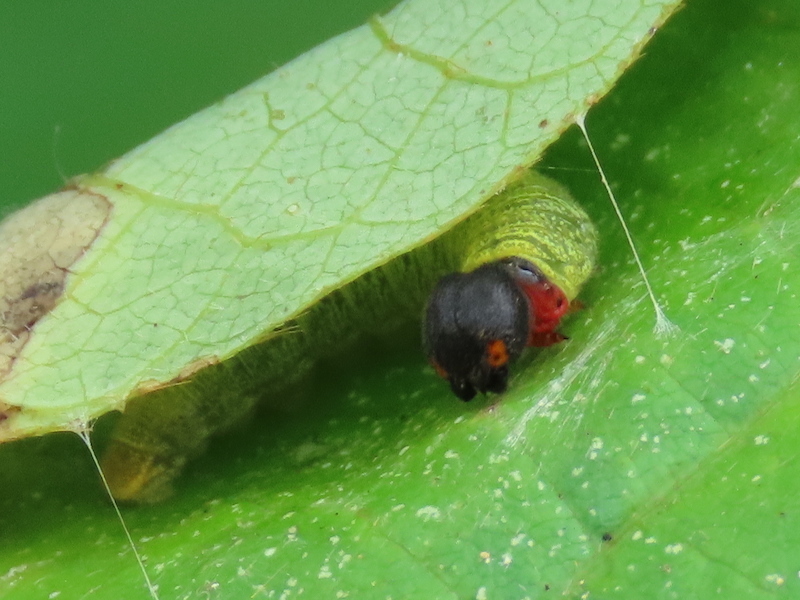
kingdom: Animalia
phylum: Arthropoda
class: Insecta
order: Lepidoptera
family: Hesperiidae
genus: Epargyreus
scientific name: Epargyreus clarus
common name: Silver-spotted skipper
